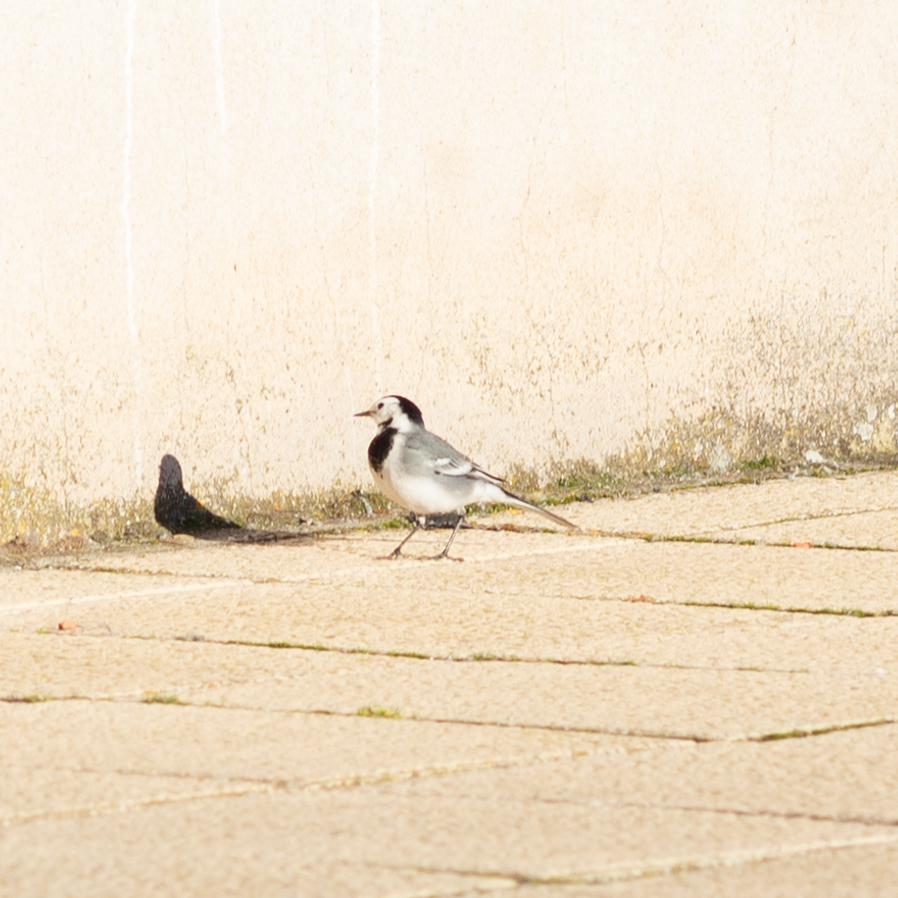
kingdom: Animalia
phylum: Chordata
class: Aves
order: Passeriformes
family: Motacillidae
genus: Motacilla
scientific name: Motacilla alba
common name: White wagtail
